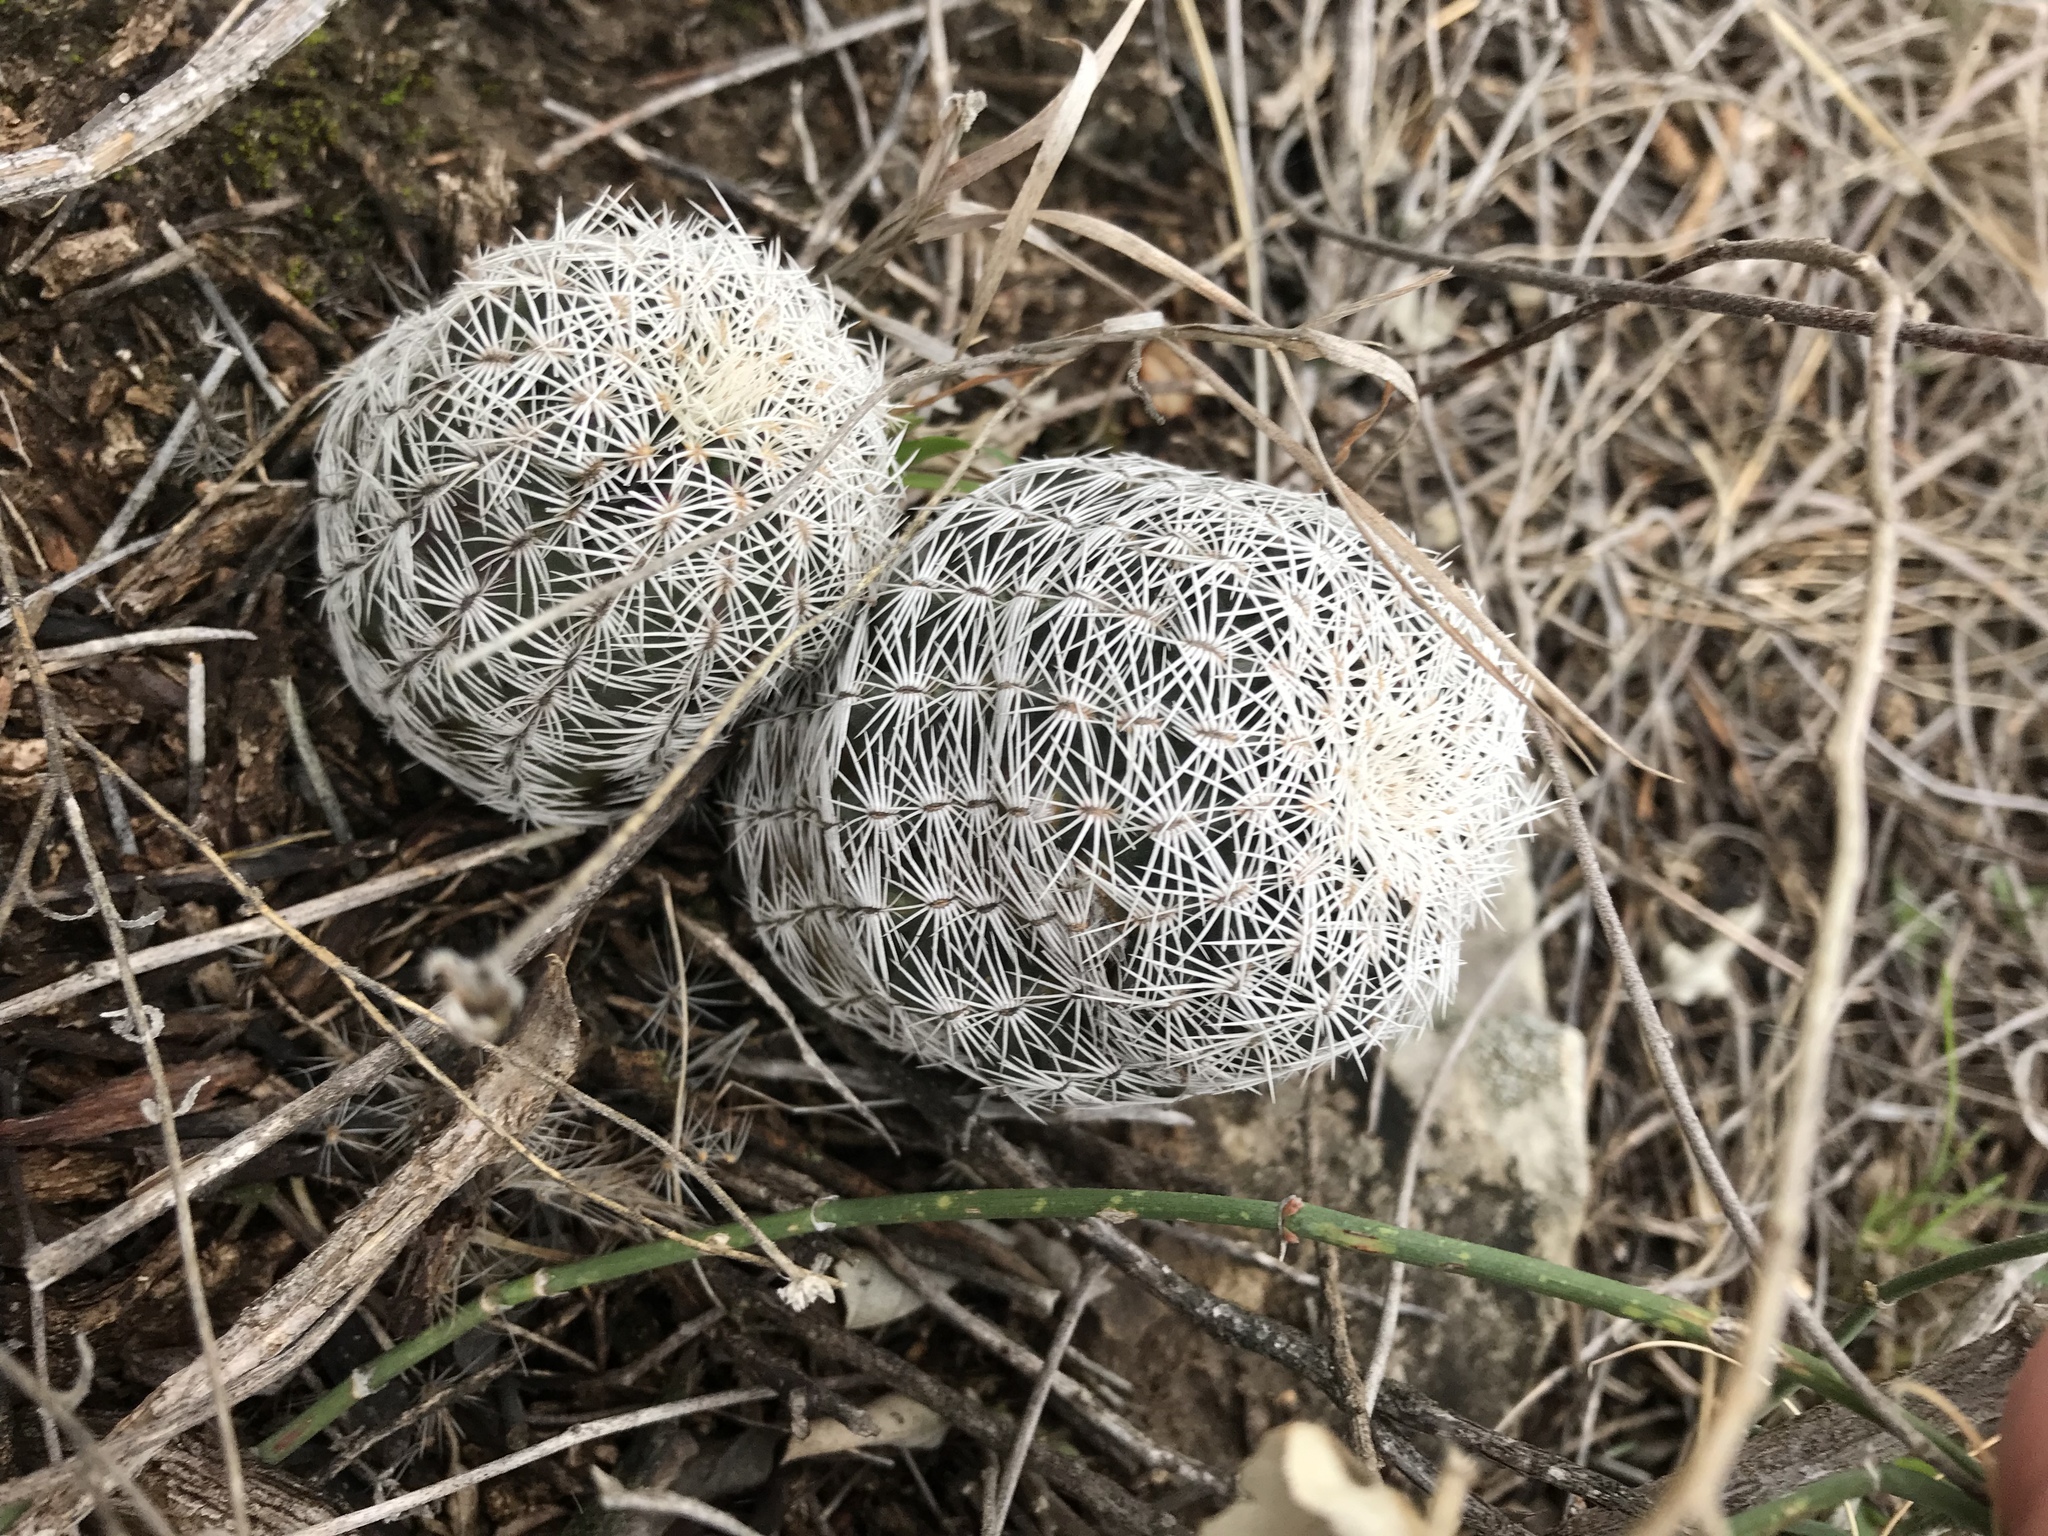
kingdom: Plantae
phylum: Tracheophyta
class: Magnoliopsida
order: Caryophyllales
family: Cactaceae
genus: Echinocereus
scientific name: Echinocereus reichenbachii
